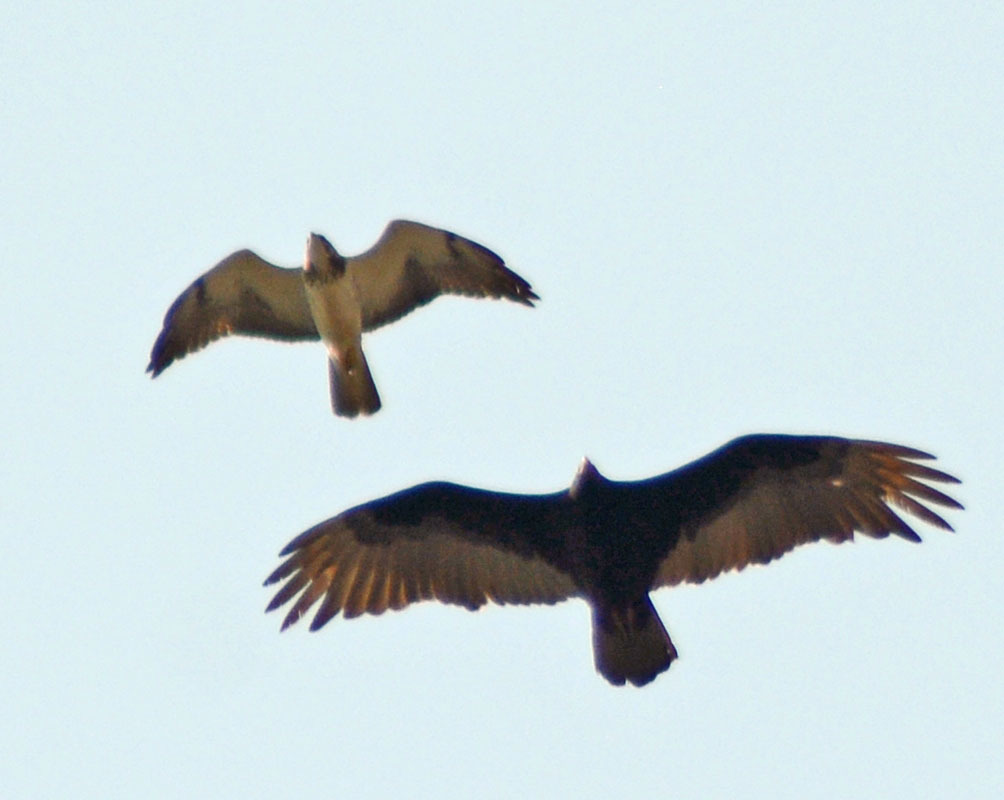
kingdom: Animalia
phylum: Chordata
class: Aves
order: Accipitriformes
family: Accipitridae
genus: Buteo
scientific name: Buteo swainsoni
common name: Swainson's hawk
